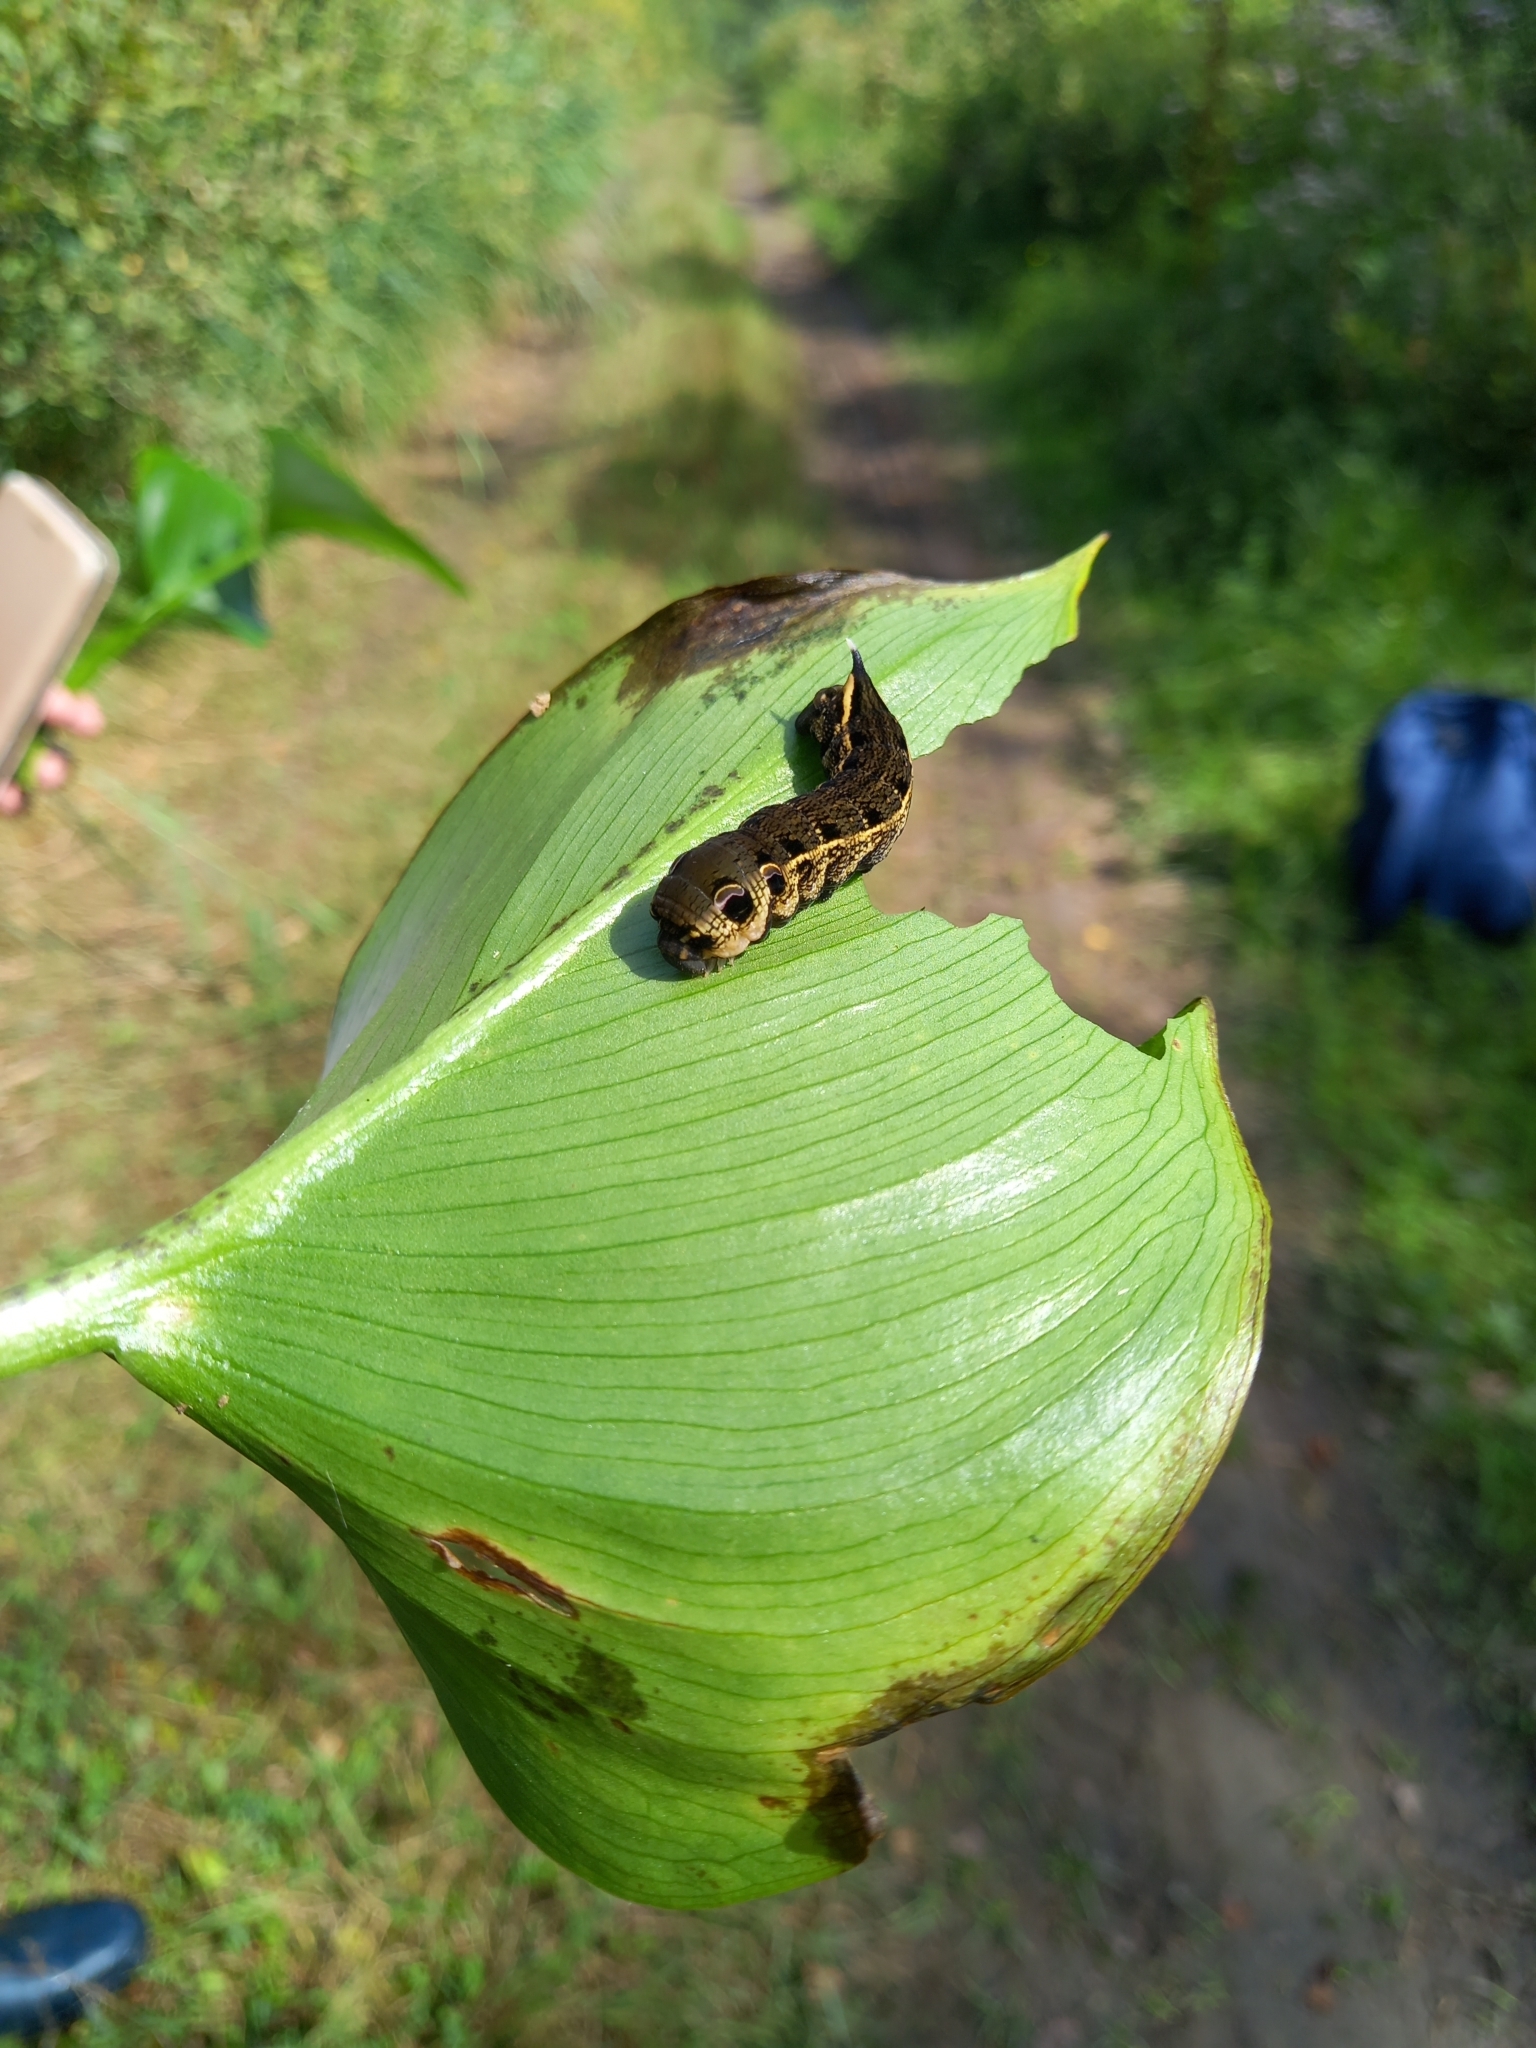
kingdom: Animalia
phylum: Arthropoda
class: Insecta
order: Lepidoptera
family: Sphingidae
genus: Deilephila
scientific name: Deilephila elpenor
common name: Elephant hawk-moth
